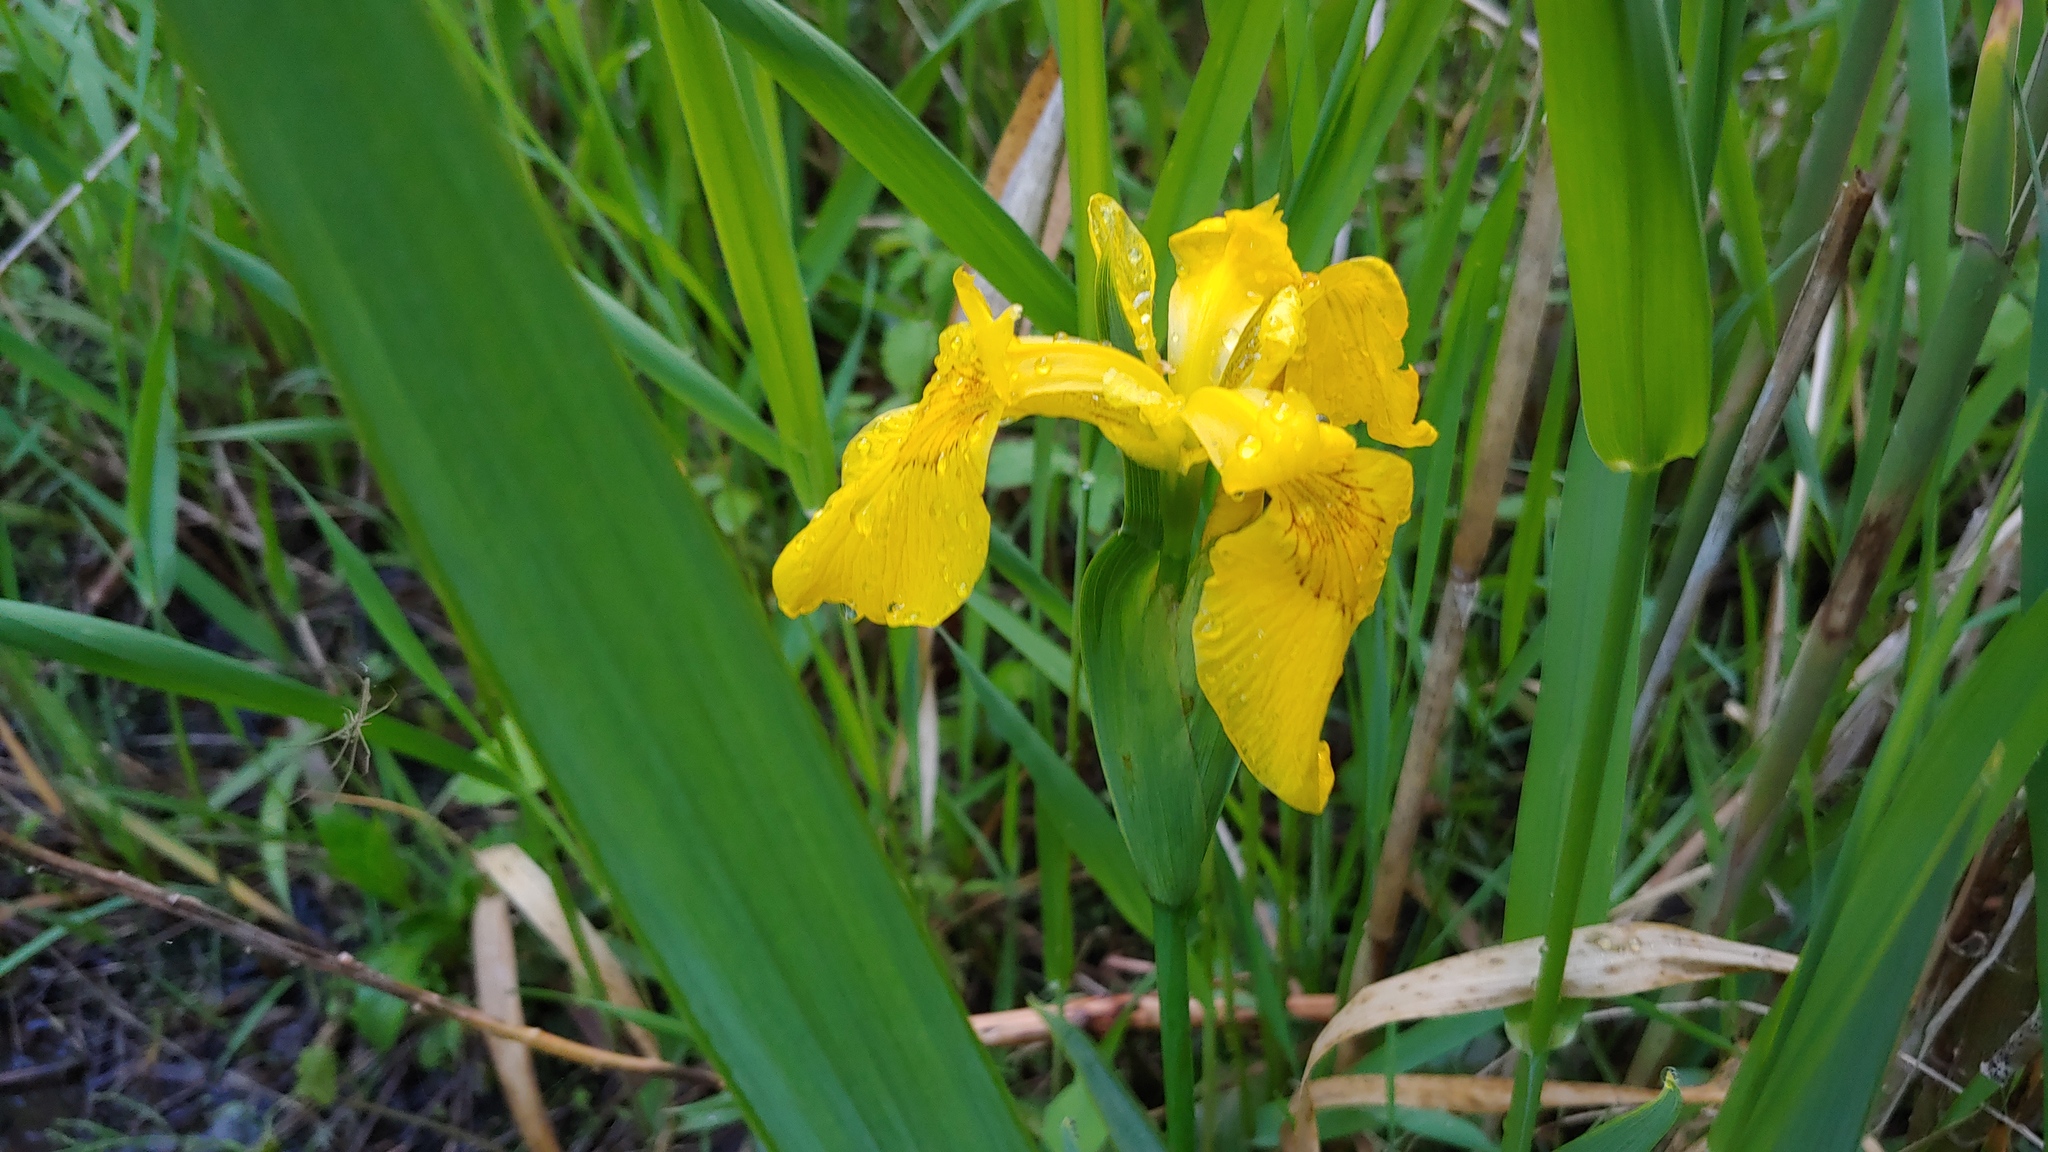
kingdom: Plantae
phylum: Tracheophyta
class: Liliopsida
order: Asparagales
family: Iridaceae
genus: Iris
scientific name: Iris pseudacorus
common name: Yellow flag
